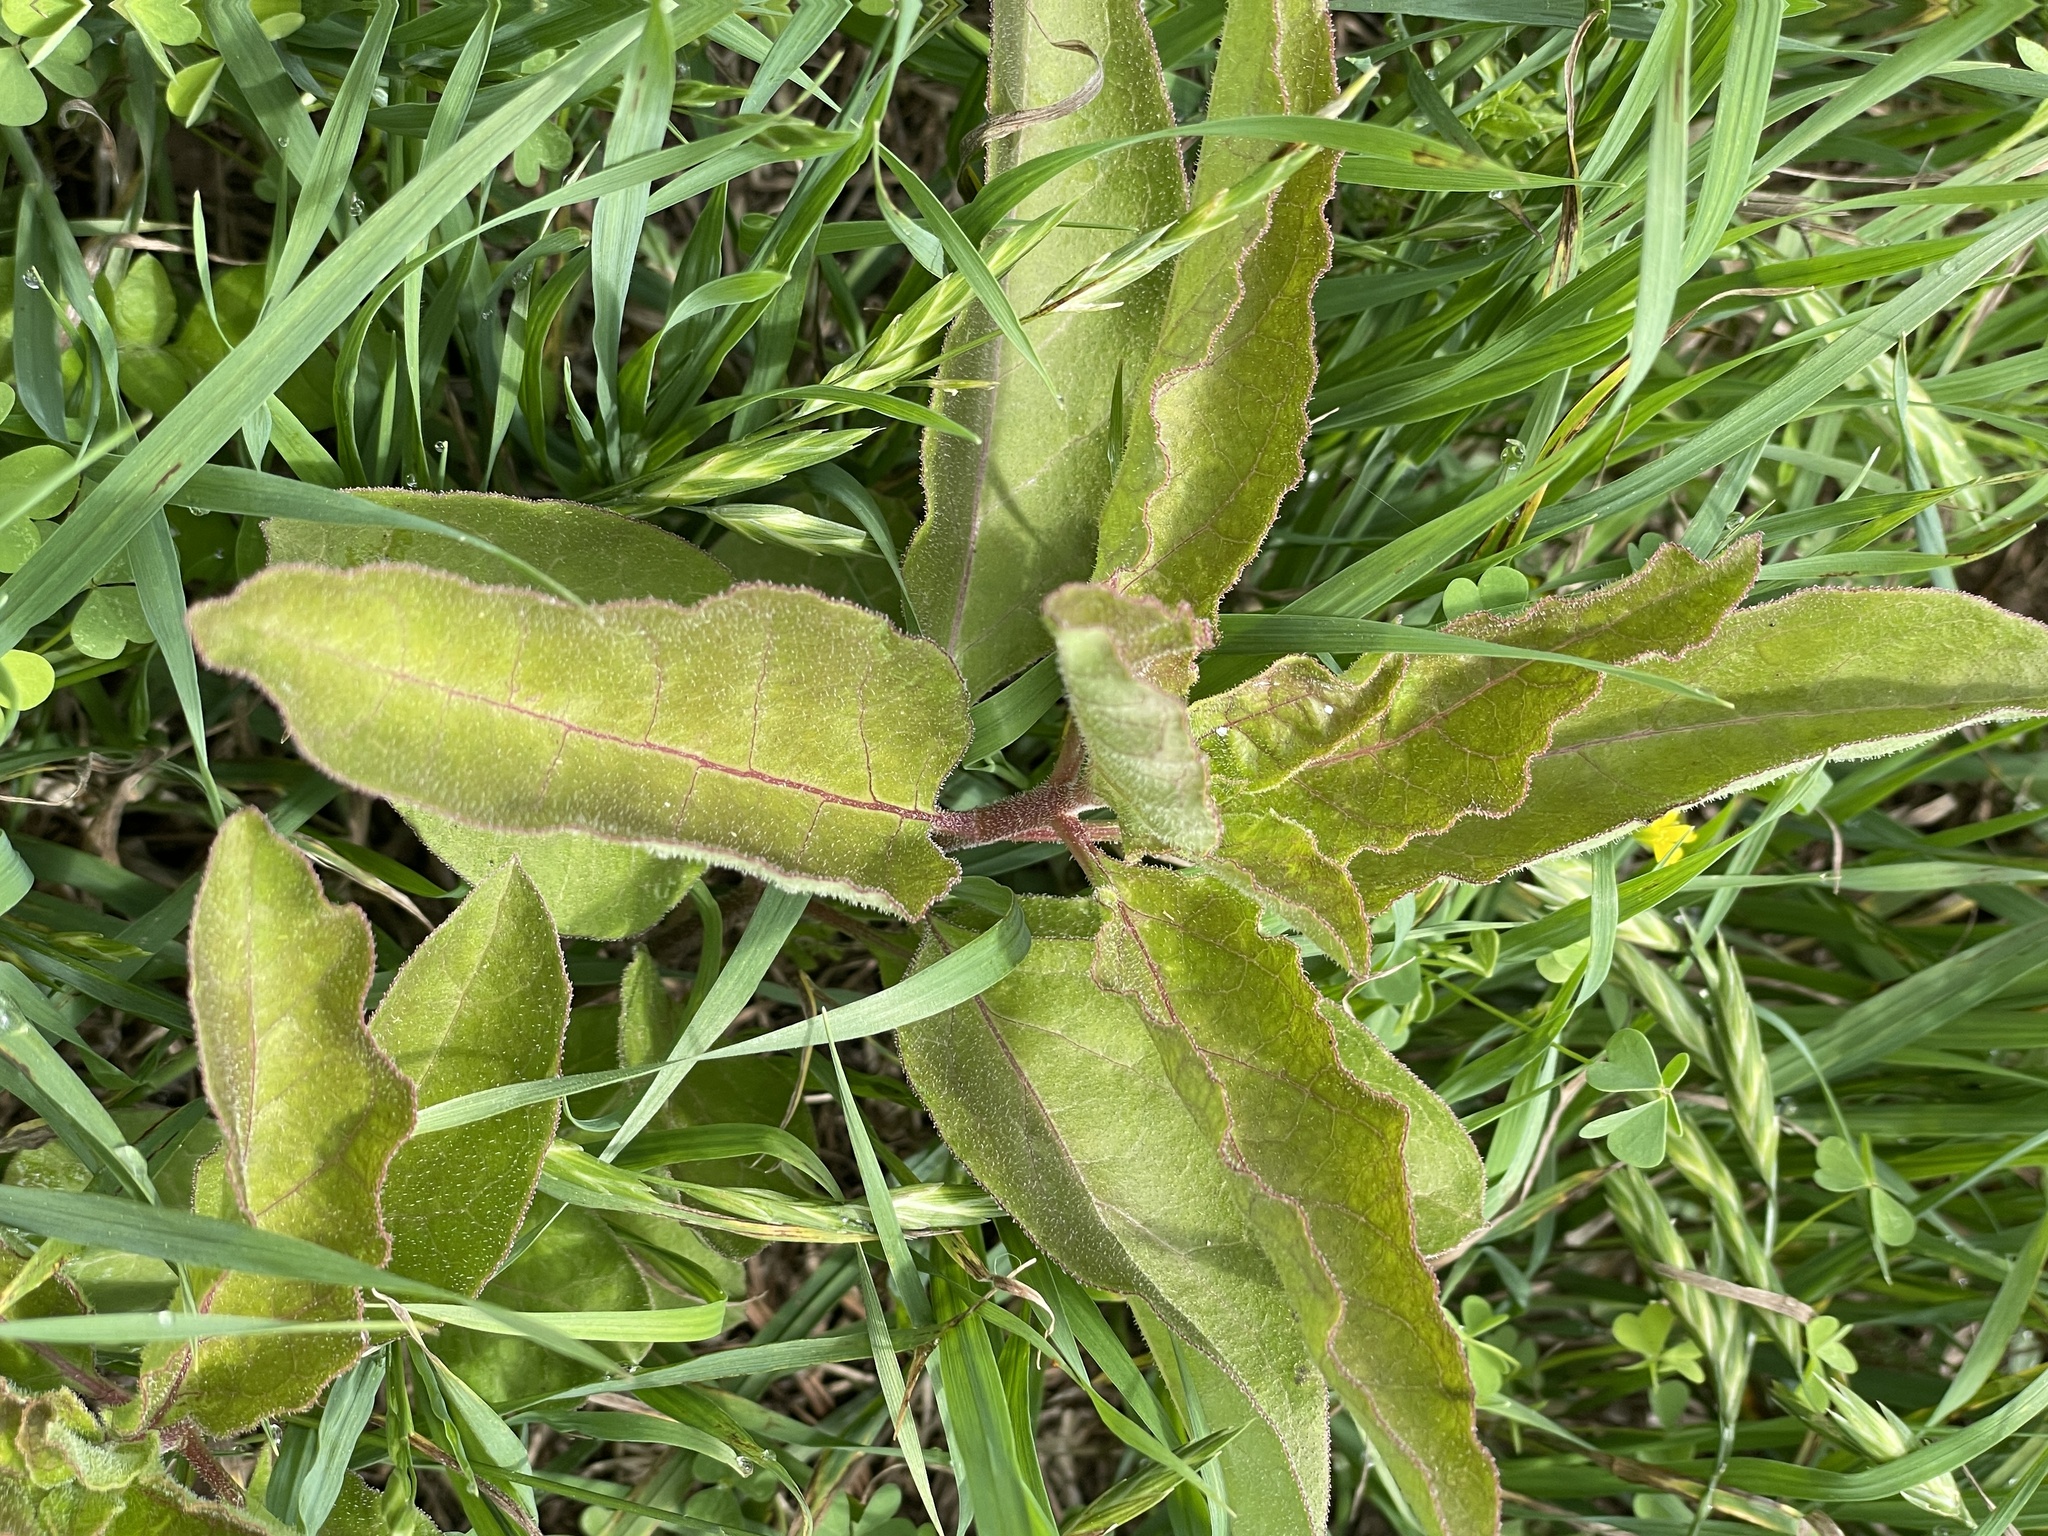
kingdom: Plantae
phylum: Tracheophyta
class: Magnoliopsida
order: Gentianales
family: Apocynaceae
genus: Asclepias
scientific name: Asclepias oenotheroides
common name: Zizotes milkweed
